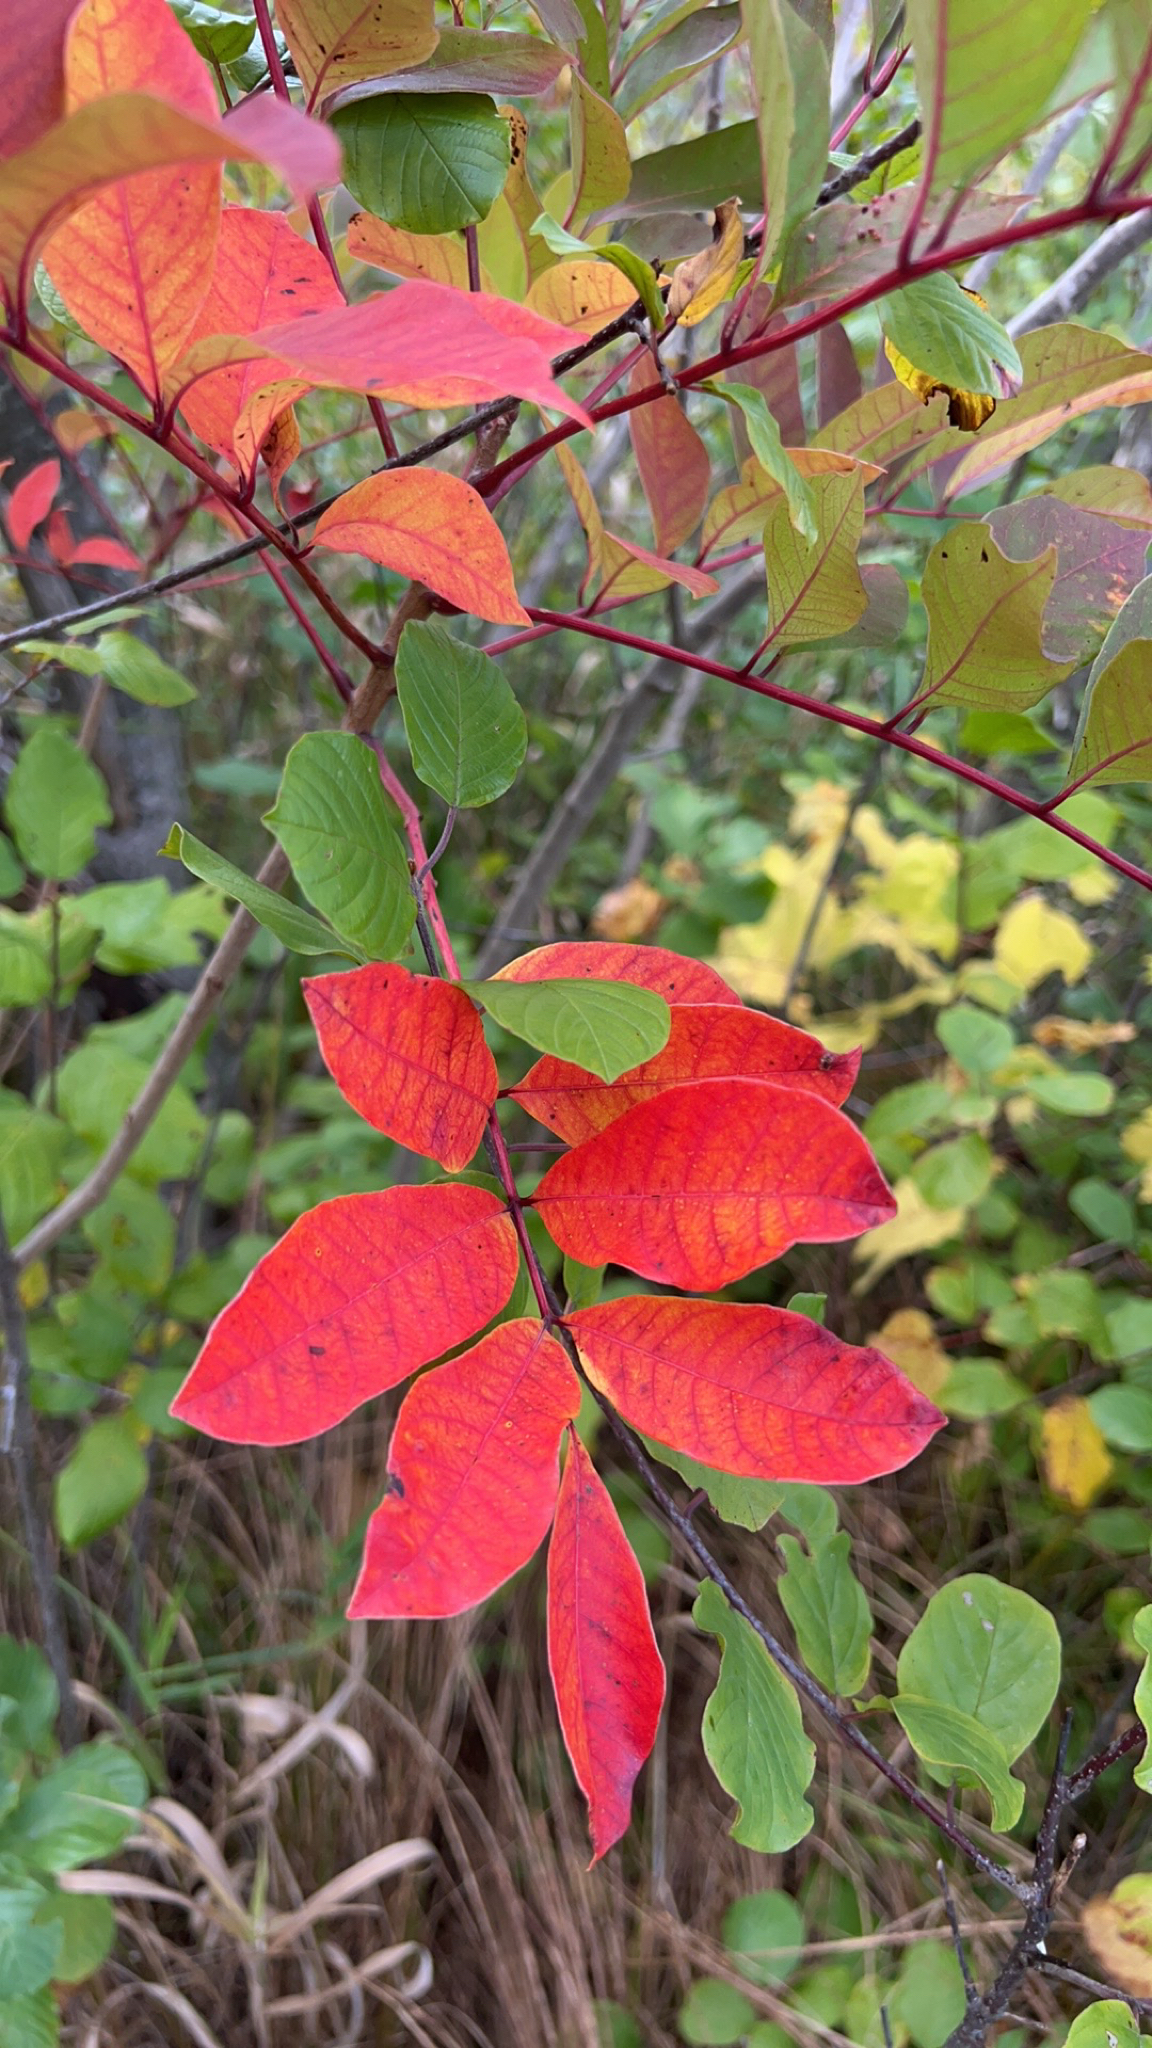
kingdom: Plantae
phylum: Tracheophyta
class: Magnoliopsida
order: Sapindales
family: Anacardiaceae
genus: Toxicodendron
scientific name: Toxicodendron vernix
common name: Poison sumac
